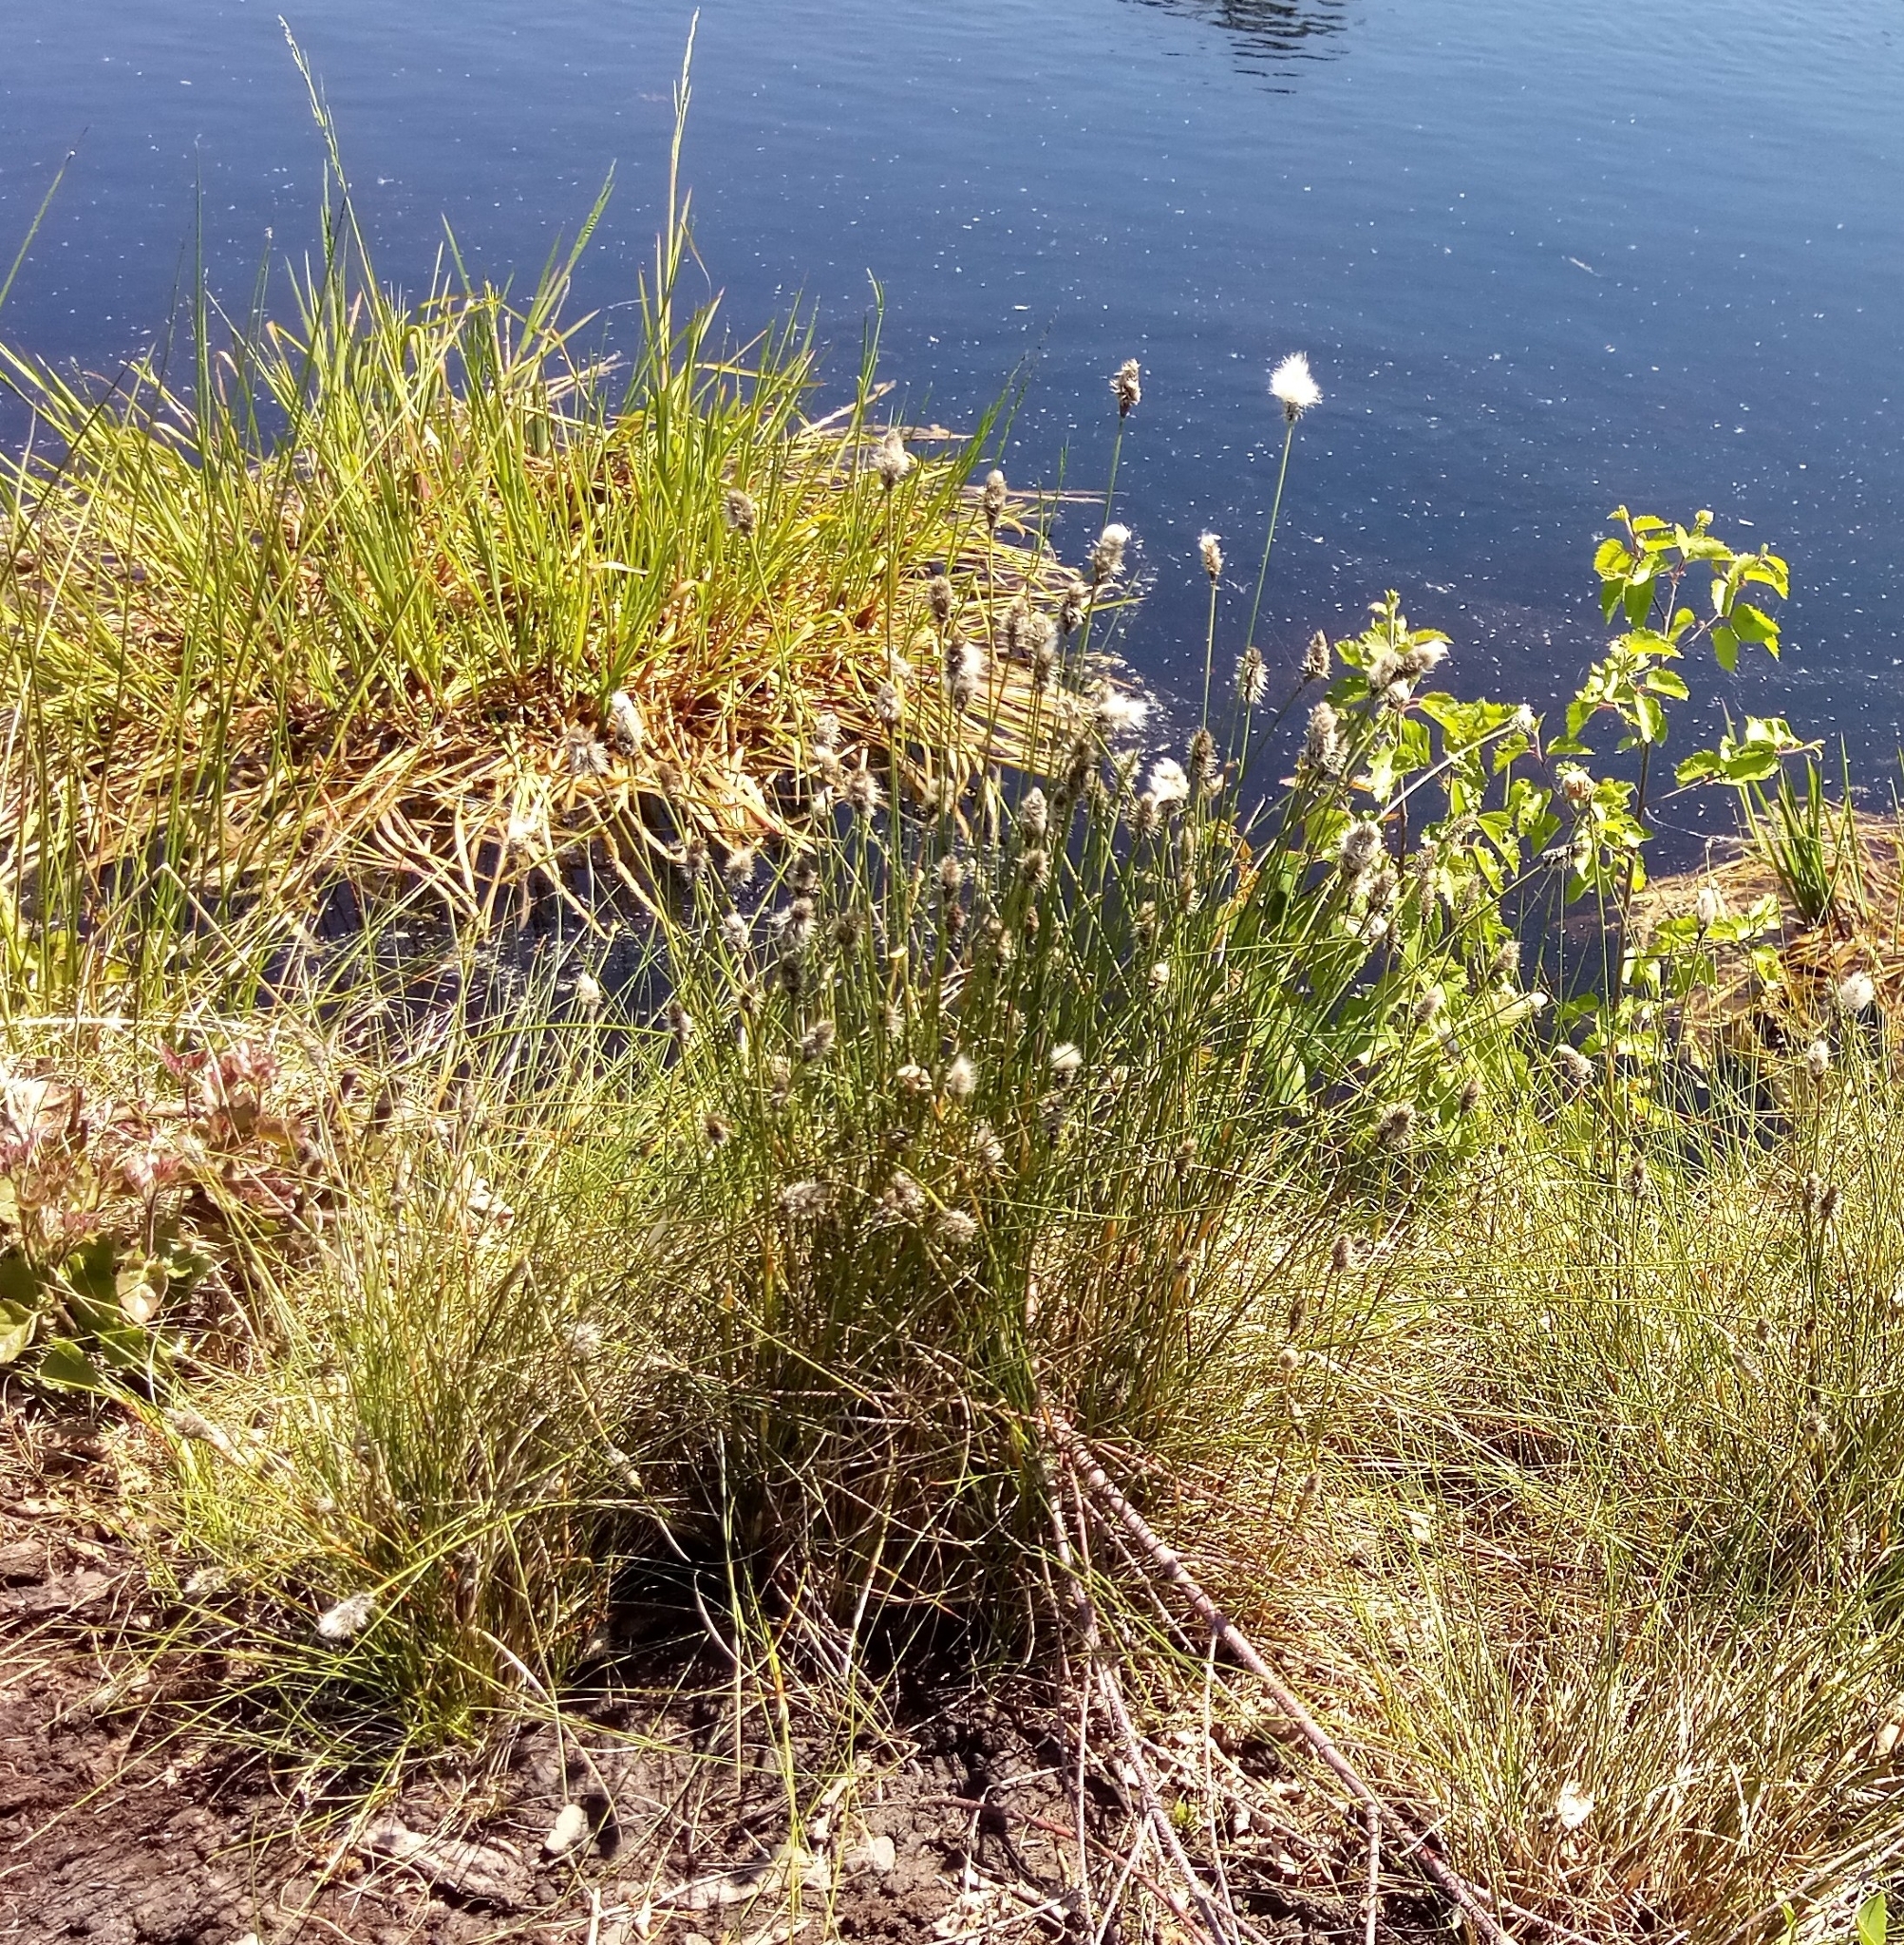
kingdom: Plantae
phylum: Tracheophyta
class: Liliopsida
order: Poales
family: Cyperaceae
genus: Eriophorum
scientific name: Eriophorum vaginatum
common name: Hare's-tail cottongrass
